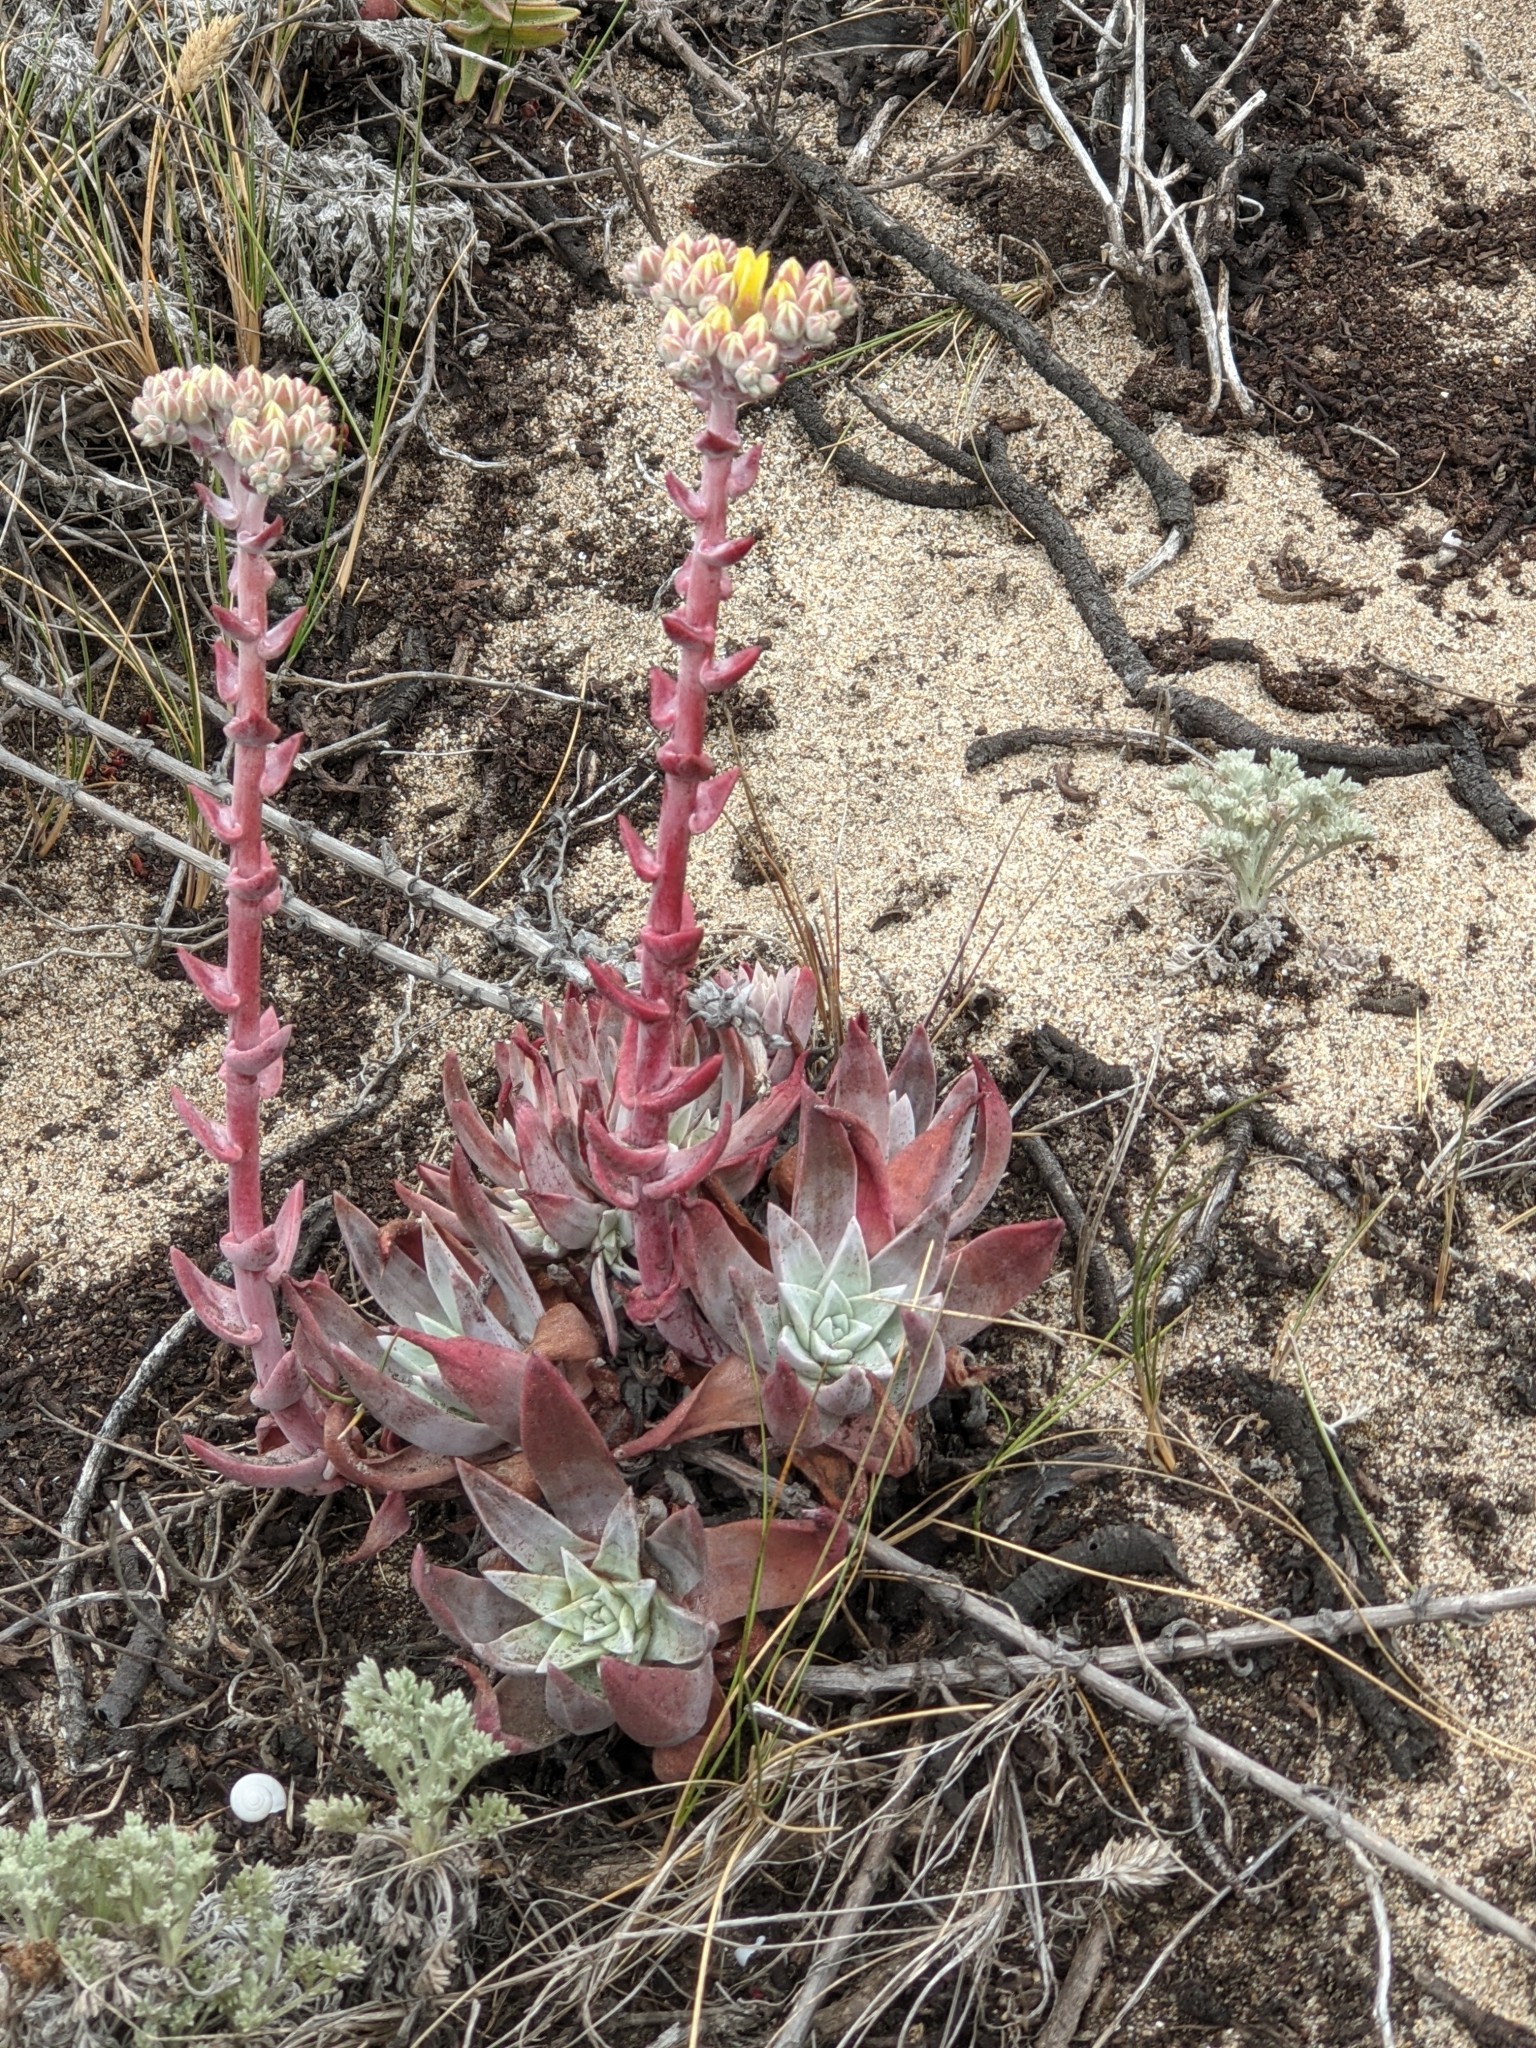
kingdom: Plantae
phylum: Tracheophyta
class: Magnoliopsida
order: Saxifragales
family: Crassulaceae
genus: Dudleya
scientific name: Dudleya caespitosa
